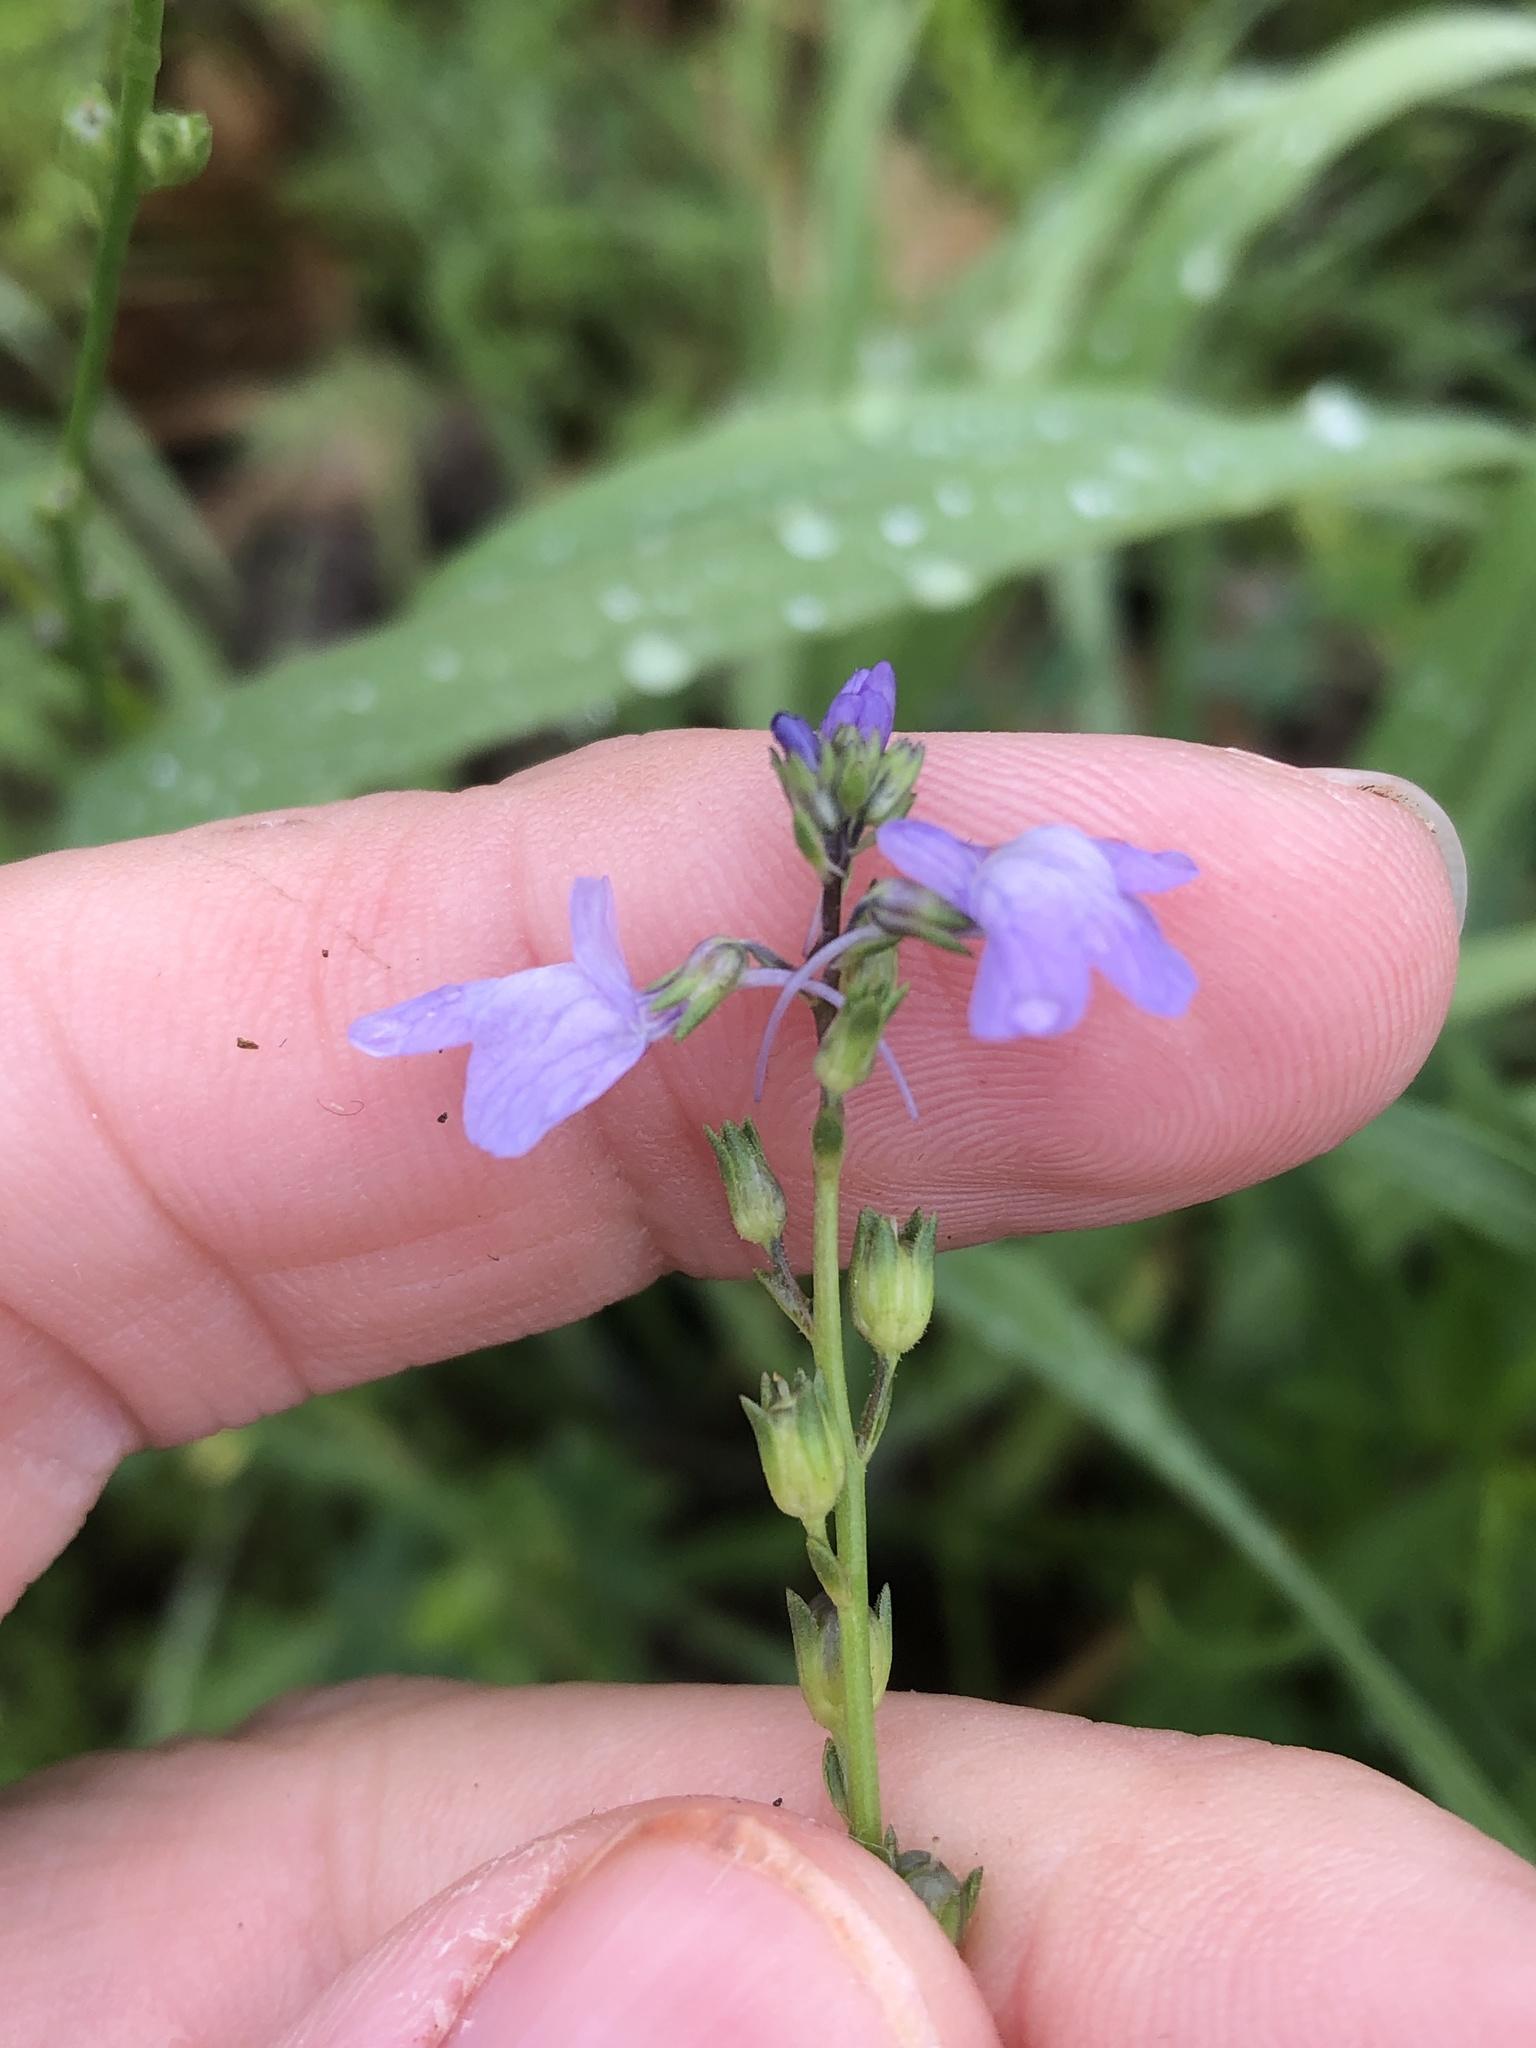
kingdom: Plantae
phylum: Tracheophyta
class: Magnoliopsida
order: Lamiales
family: Plantaginaceae
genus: Nuttallanthus
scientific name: Nuttallanthus texanus
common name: Texas toadflax
